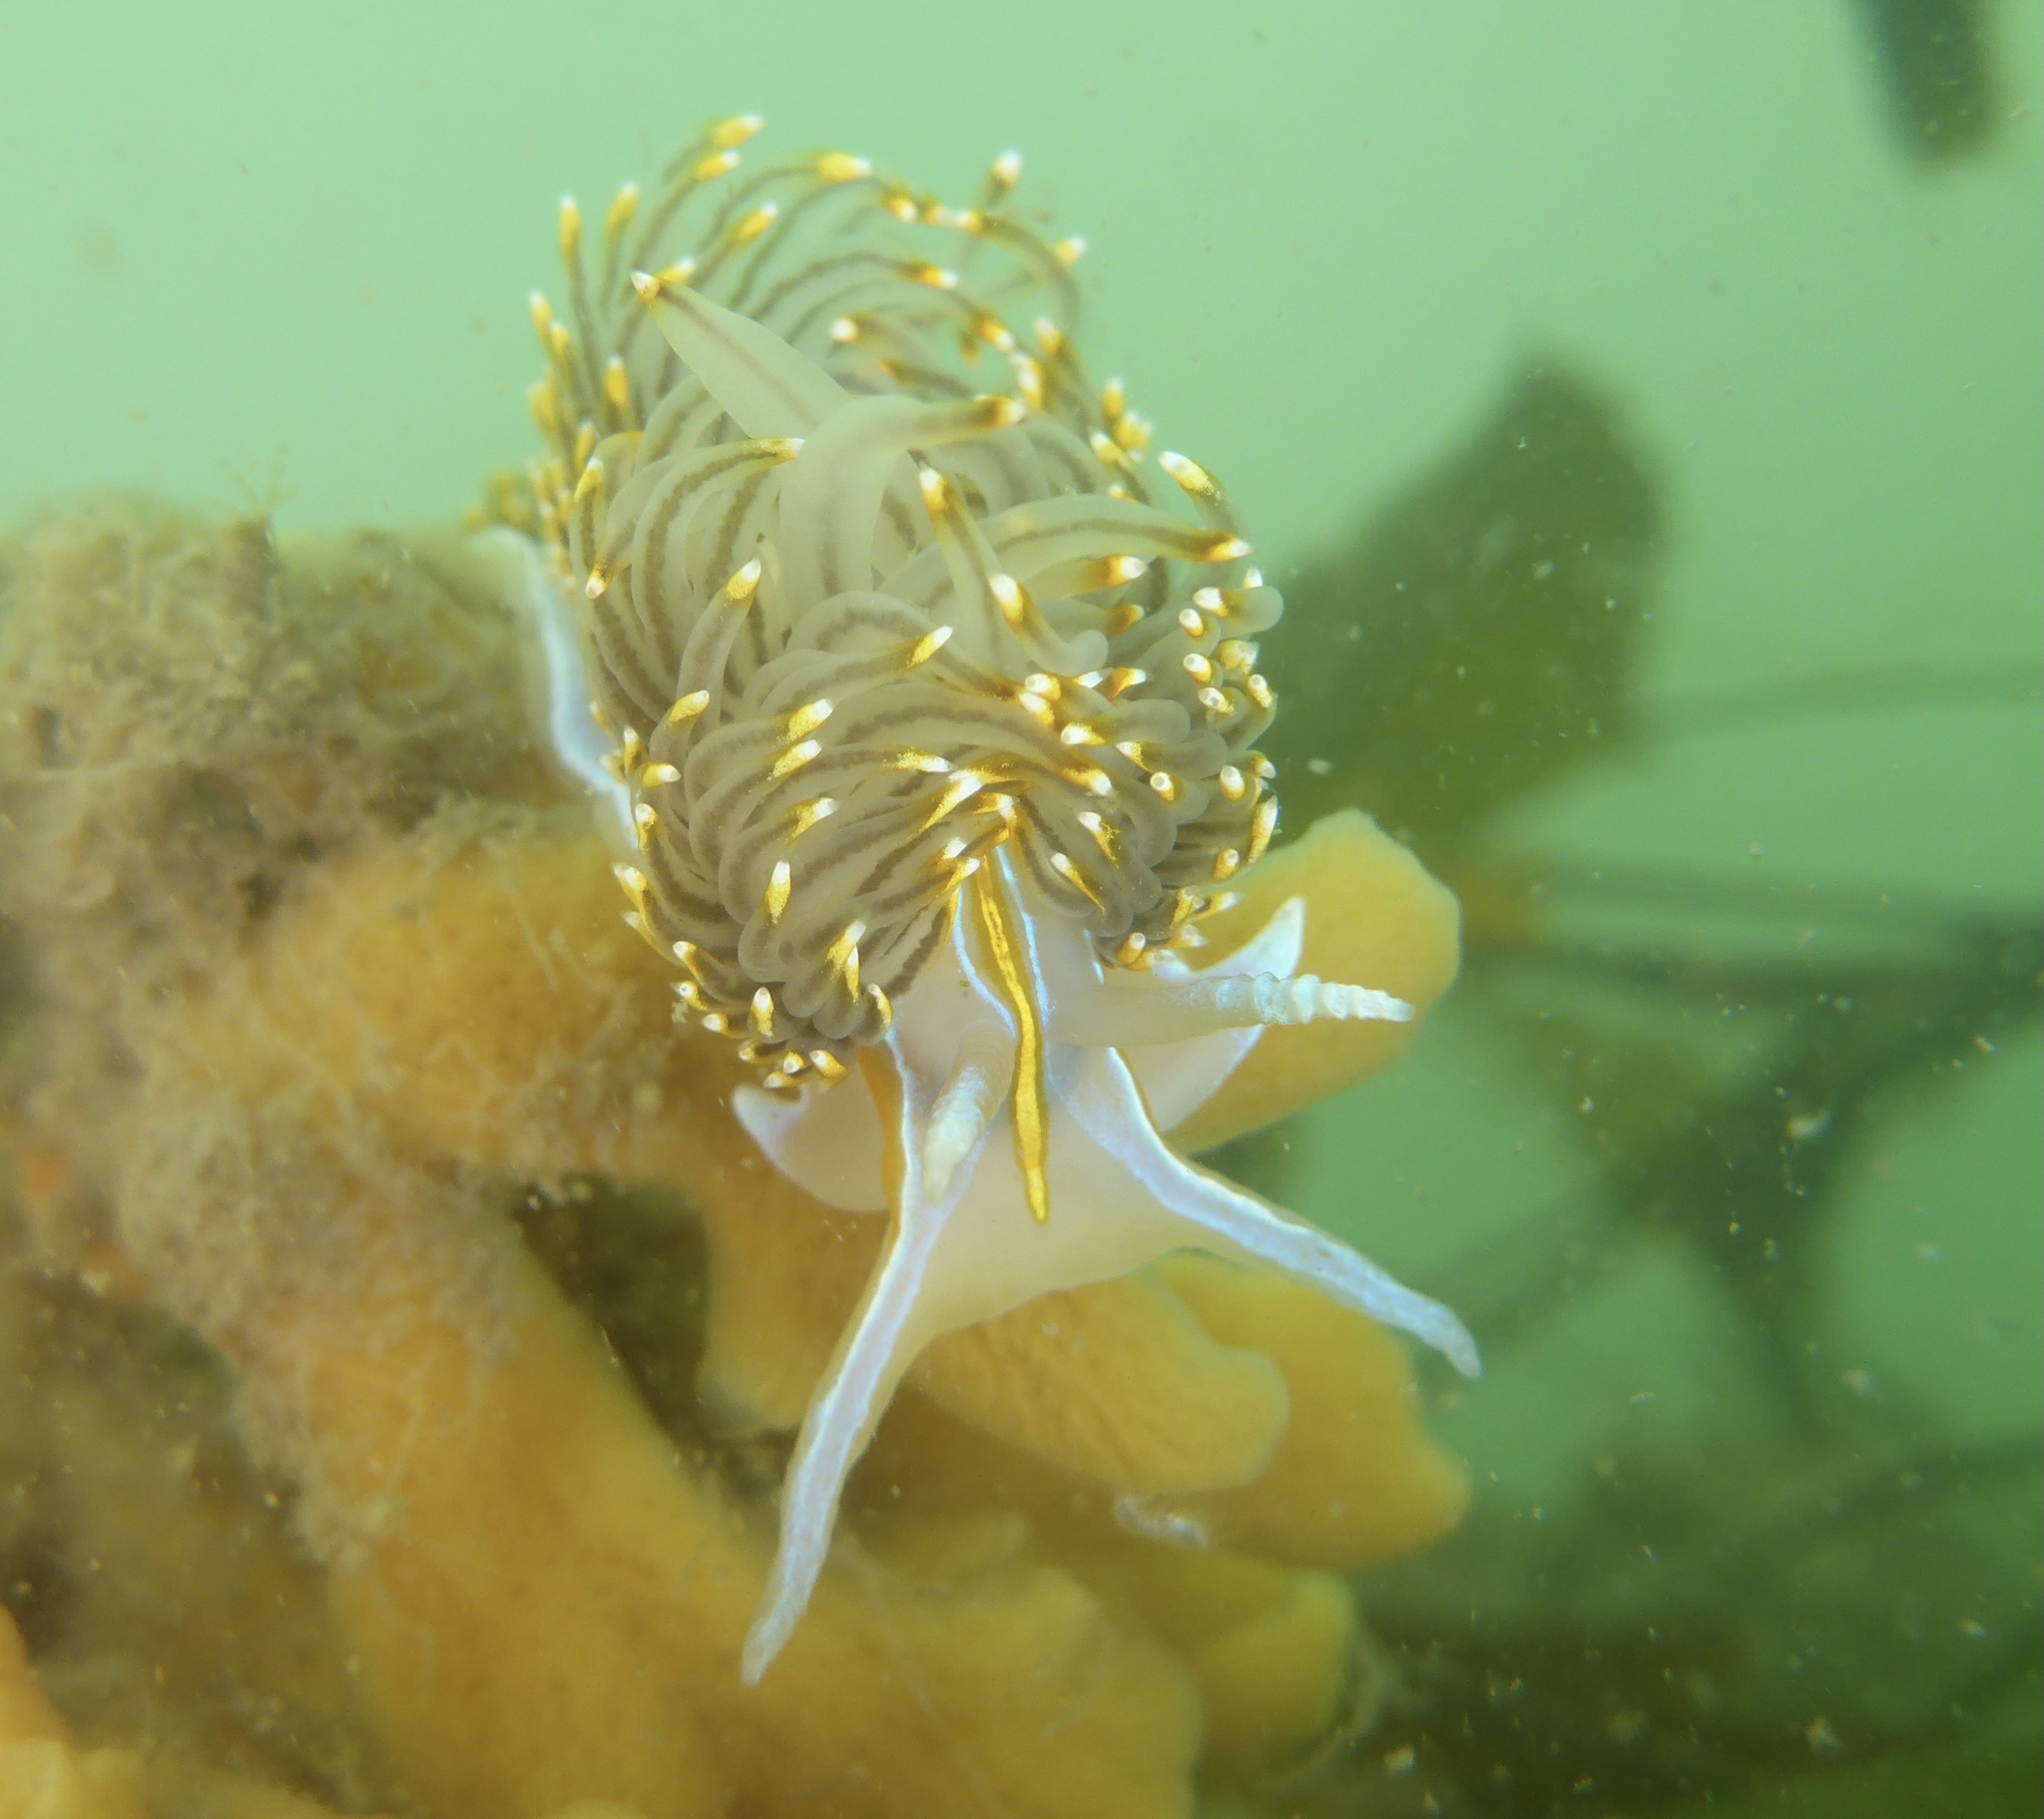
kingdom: Animalia
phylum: Mollusca
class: Gastropoda
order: Nudibranchia
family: Myrrhinidae
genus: Hermissenda
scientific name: Hermissenda opalescens
